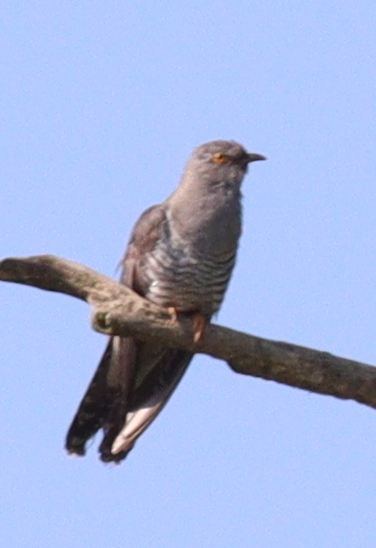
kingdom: Animalia
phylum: Chordata
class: Aves
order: Cuculiformes
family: Cuculidae
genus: Cuculus
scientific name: Cuculus canorus
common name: Common cuckoo
